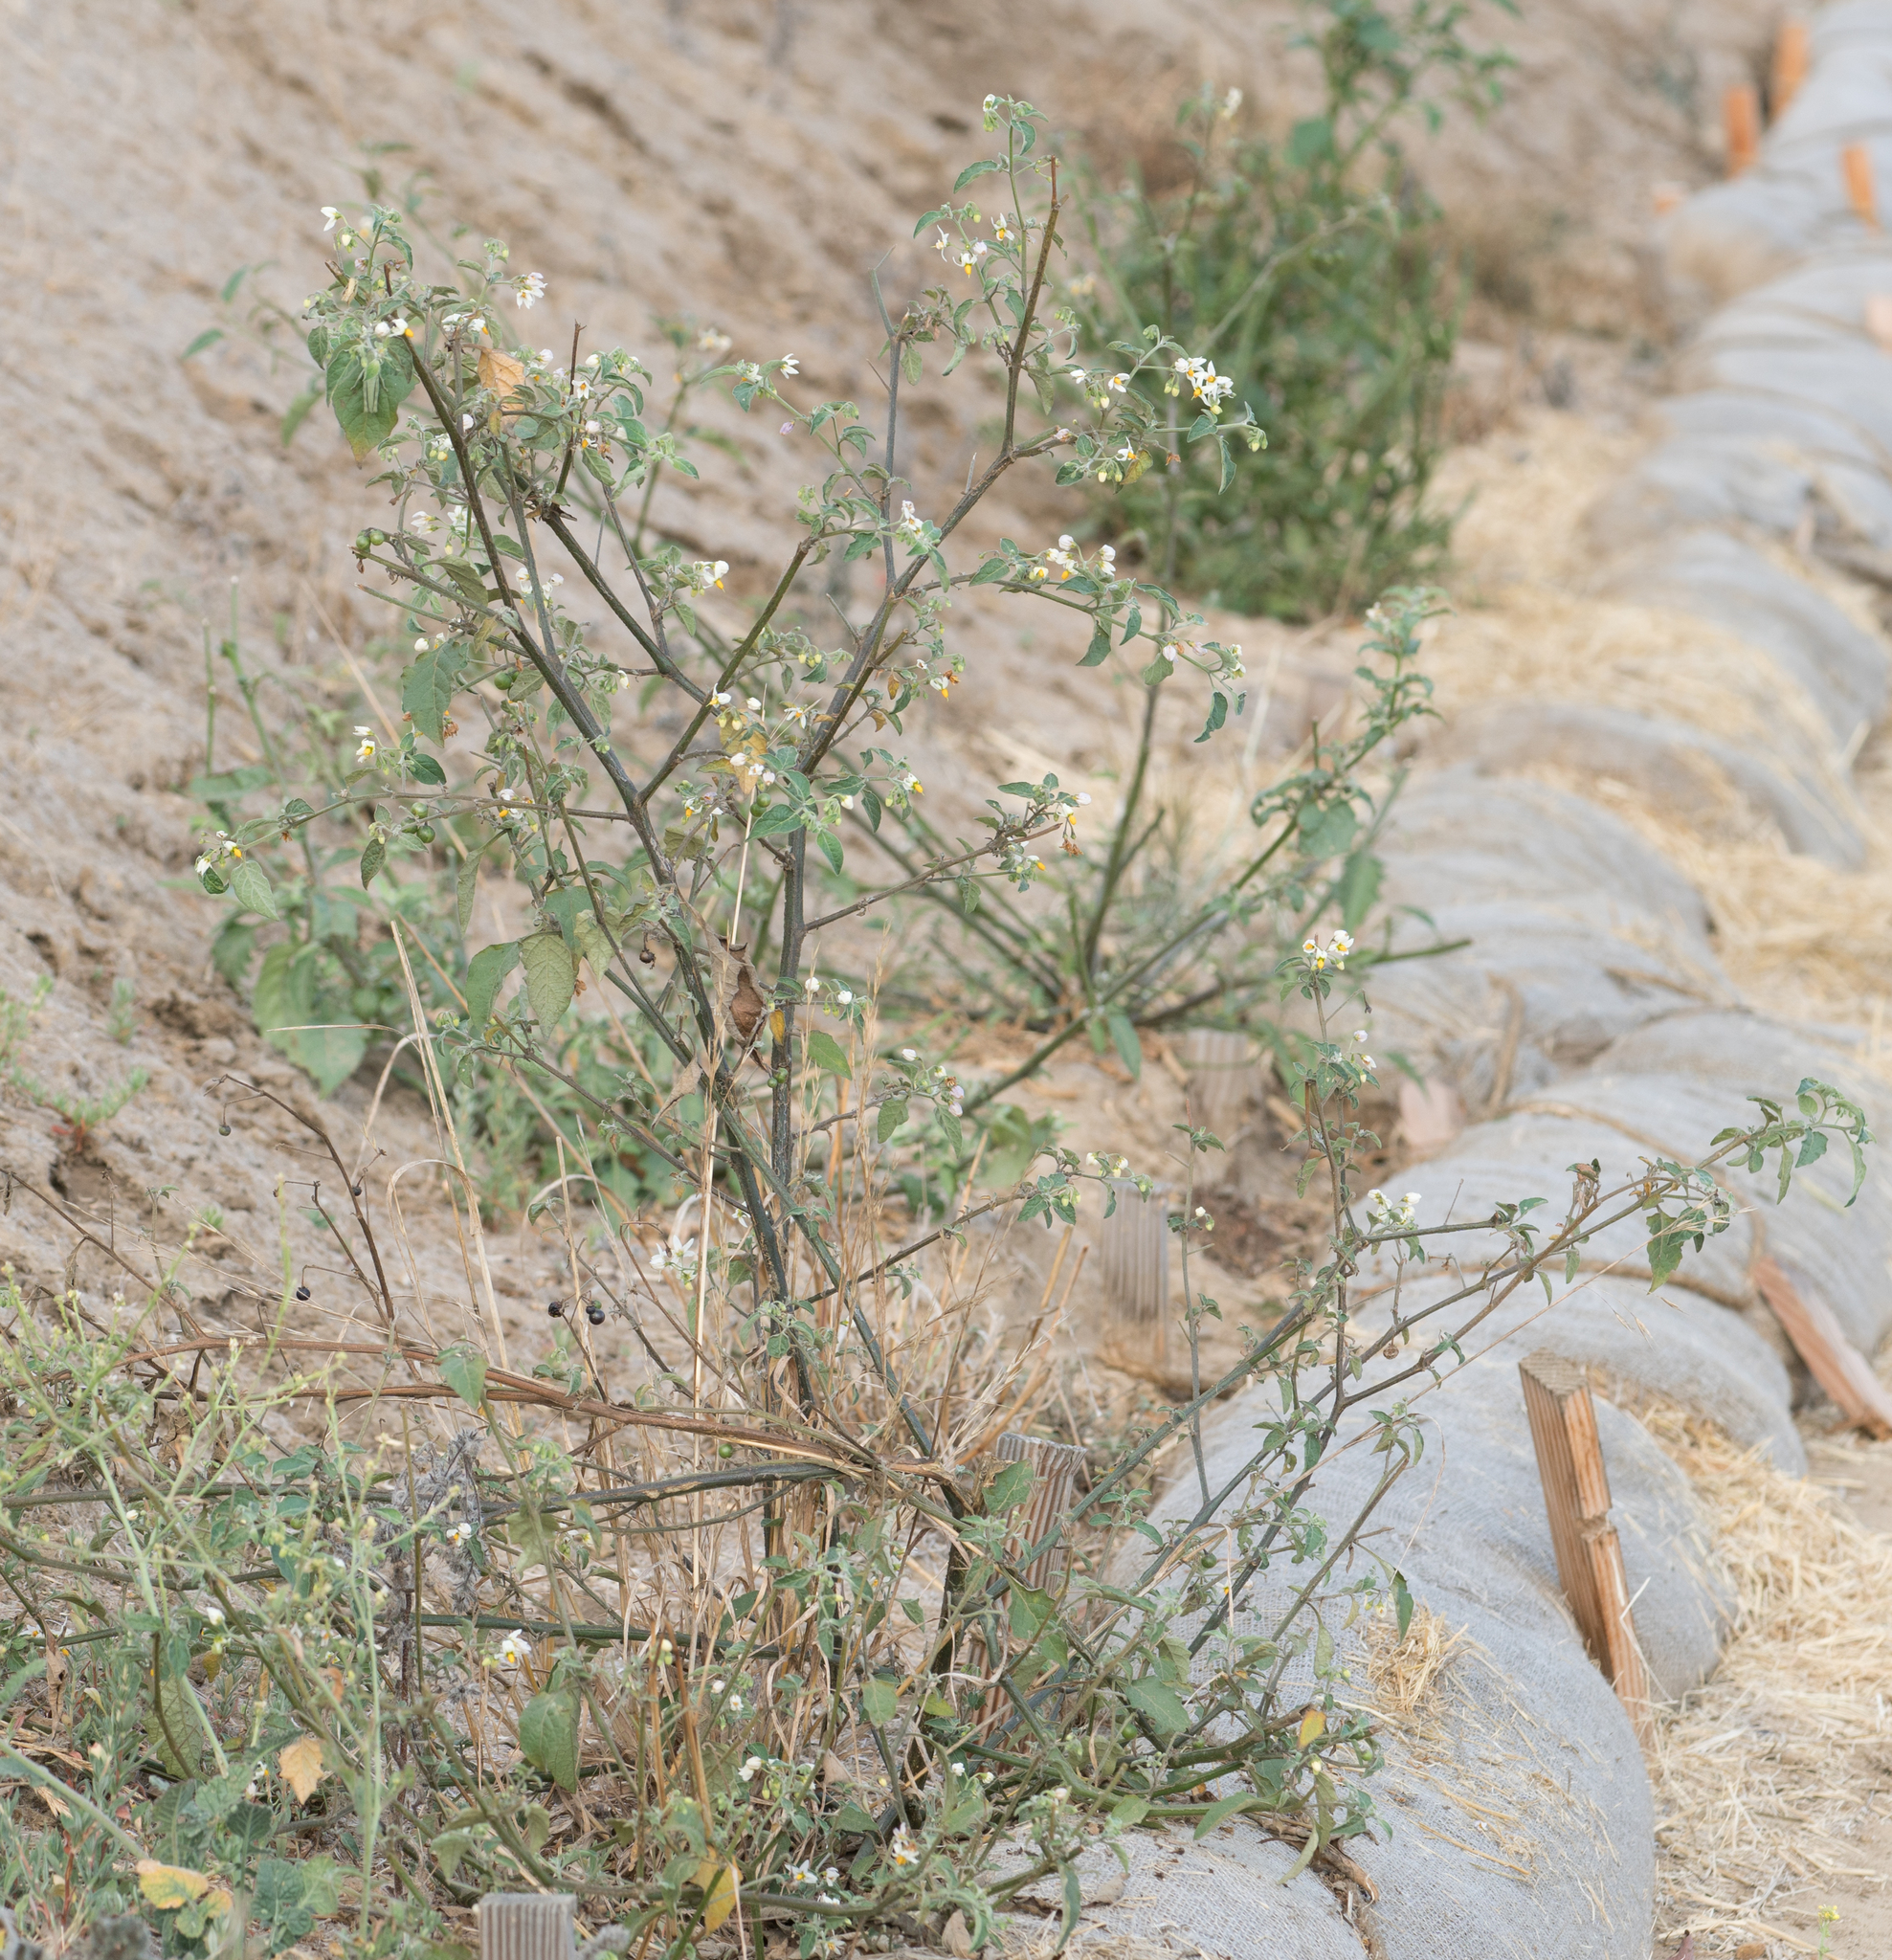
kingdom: Plantae
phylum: Tracheophyta
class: Magnoliopsida
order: Solanales
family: Solanaceae
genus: Solanum
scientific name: Solanum douglasii
